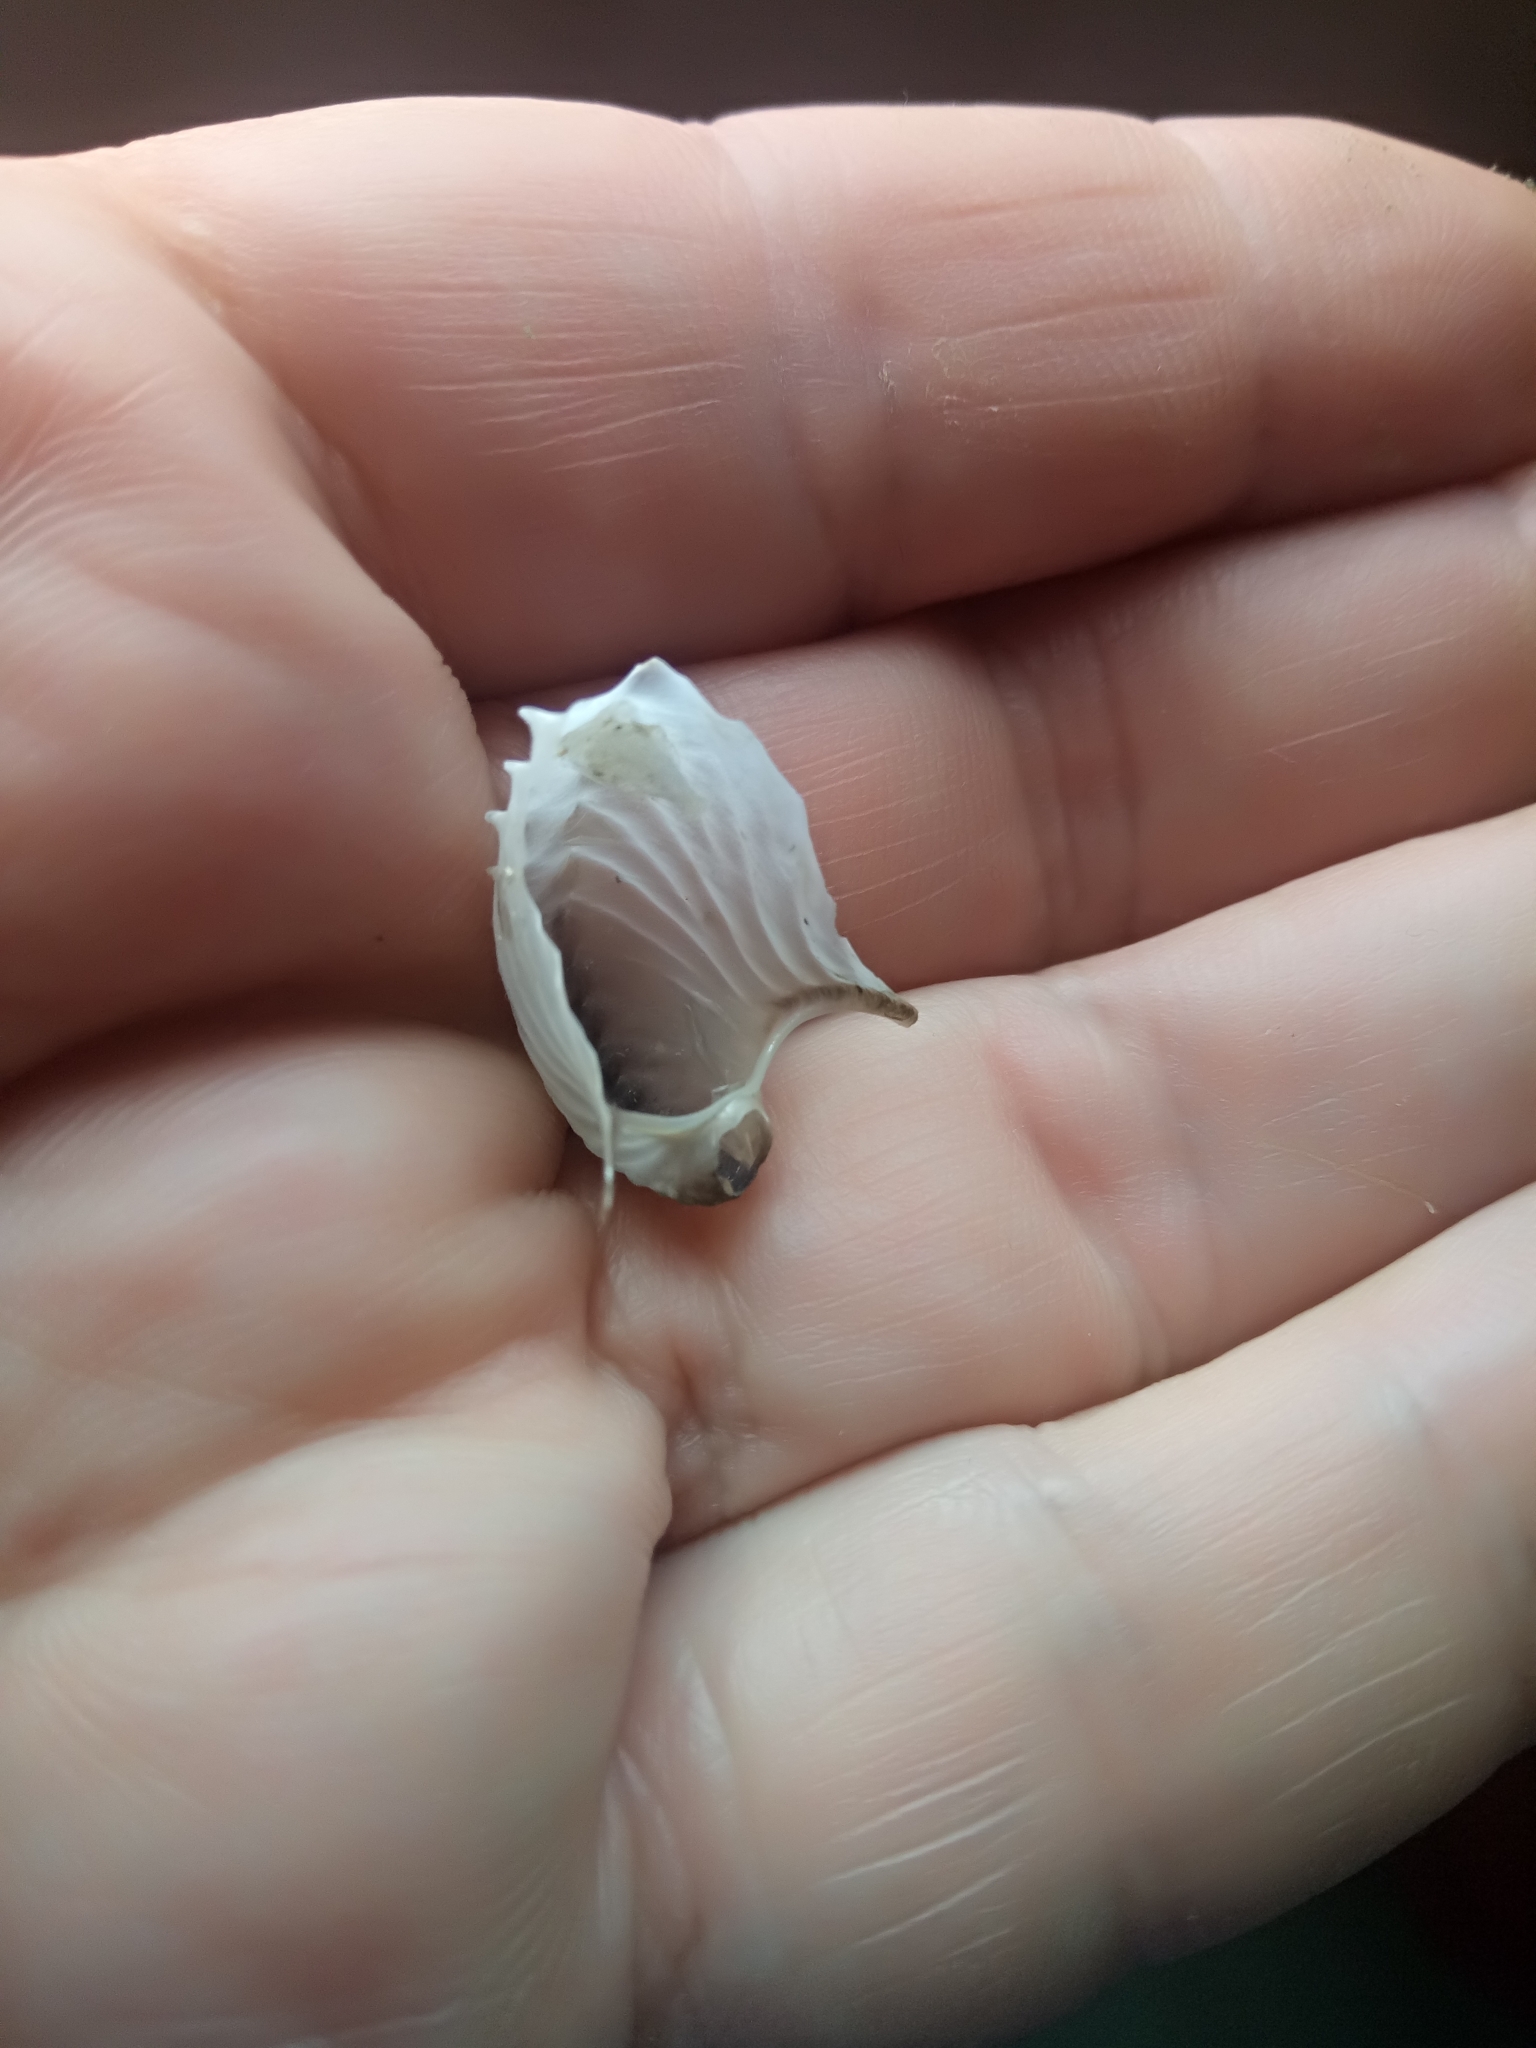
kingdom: Animalia
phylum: Mollusca
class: Cephalopoda
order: Octopoda
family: Argonautidae
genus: Argonauta
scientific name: Argonauta argo
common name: Common paper nautilus
